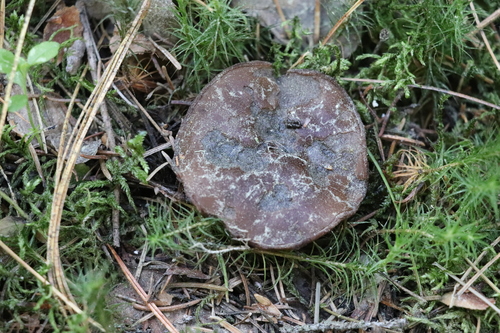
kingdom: Fungi
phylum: Ascomycota
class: Pezizomycetes
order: Pezizales
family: Sarcosomataceae
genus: Sarcosoma
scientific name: Sarcosoma globosum
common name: Charred-pancake cup
